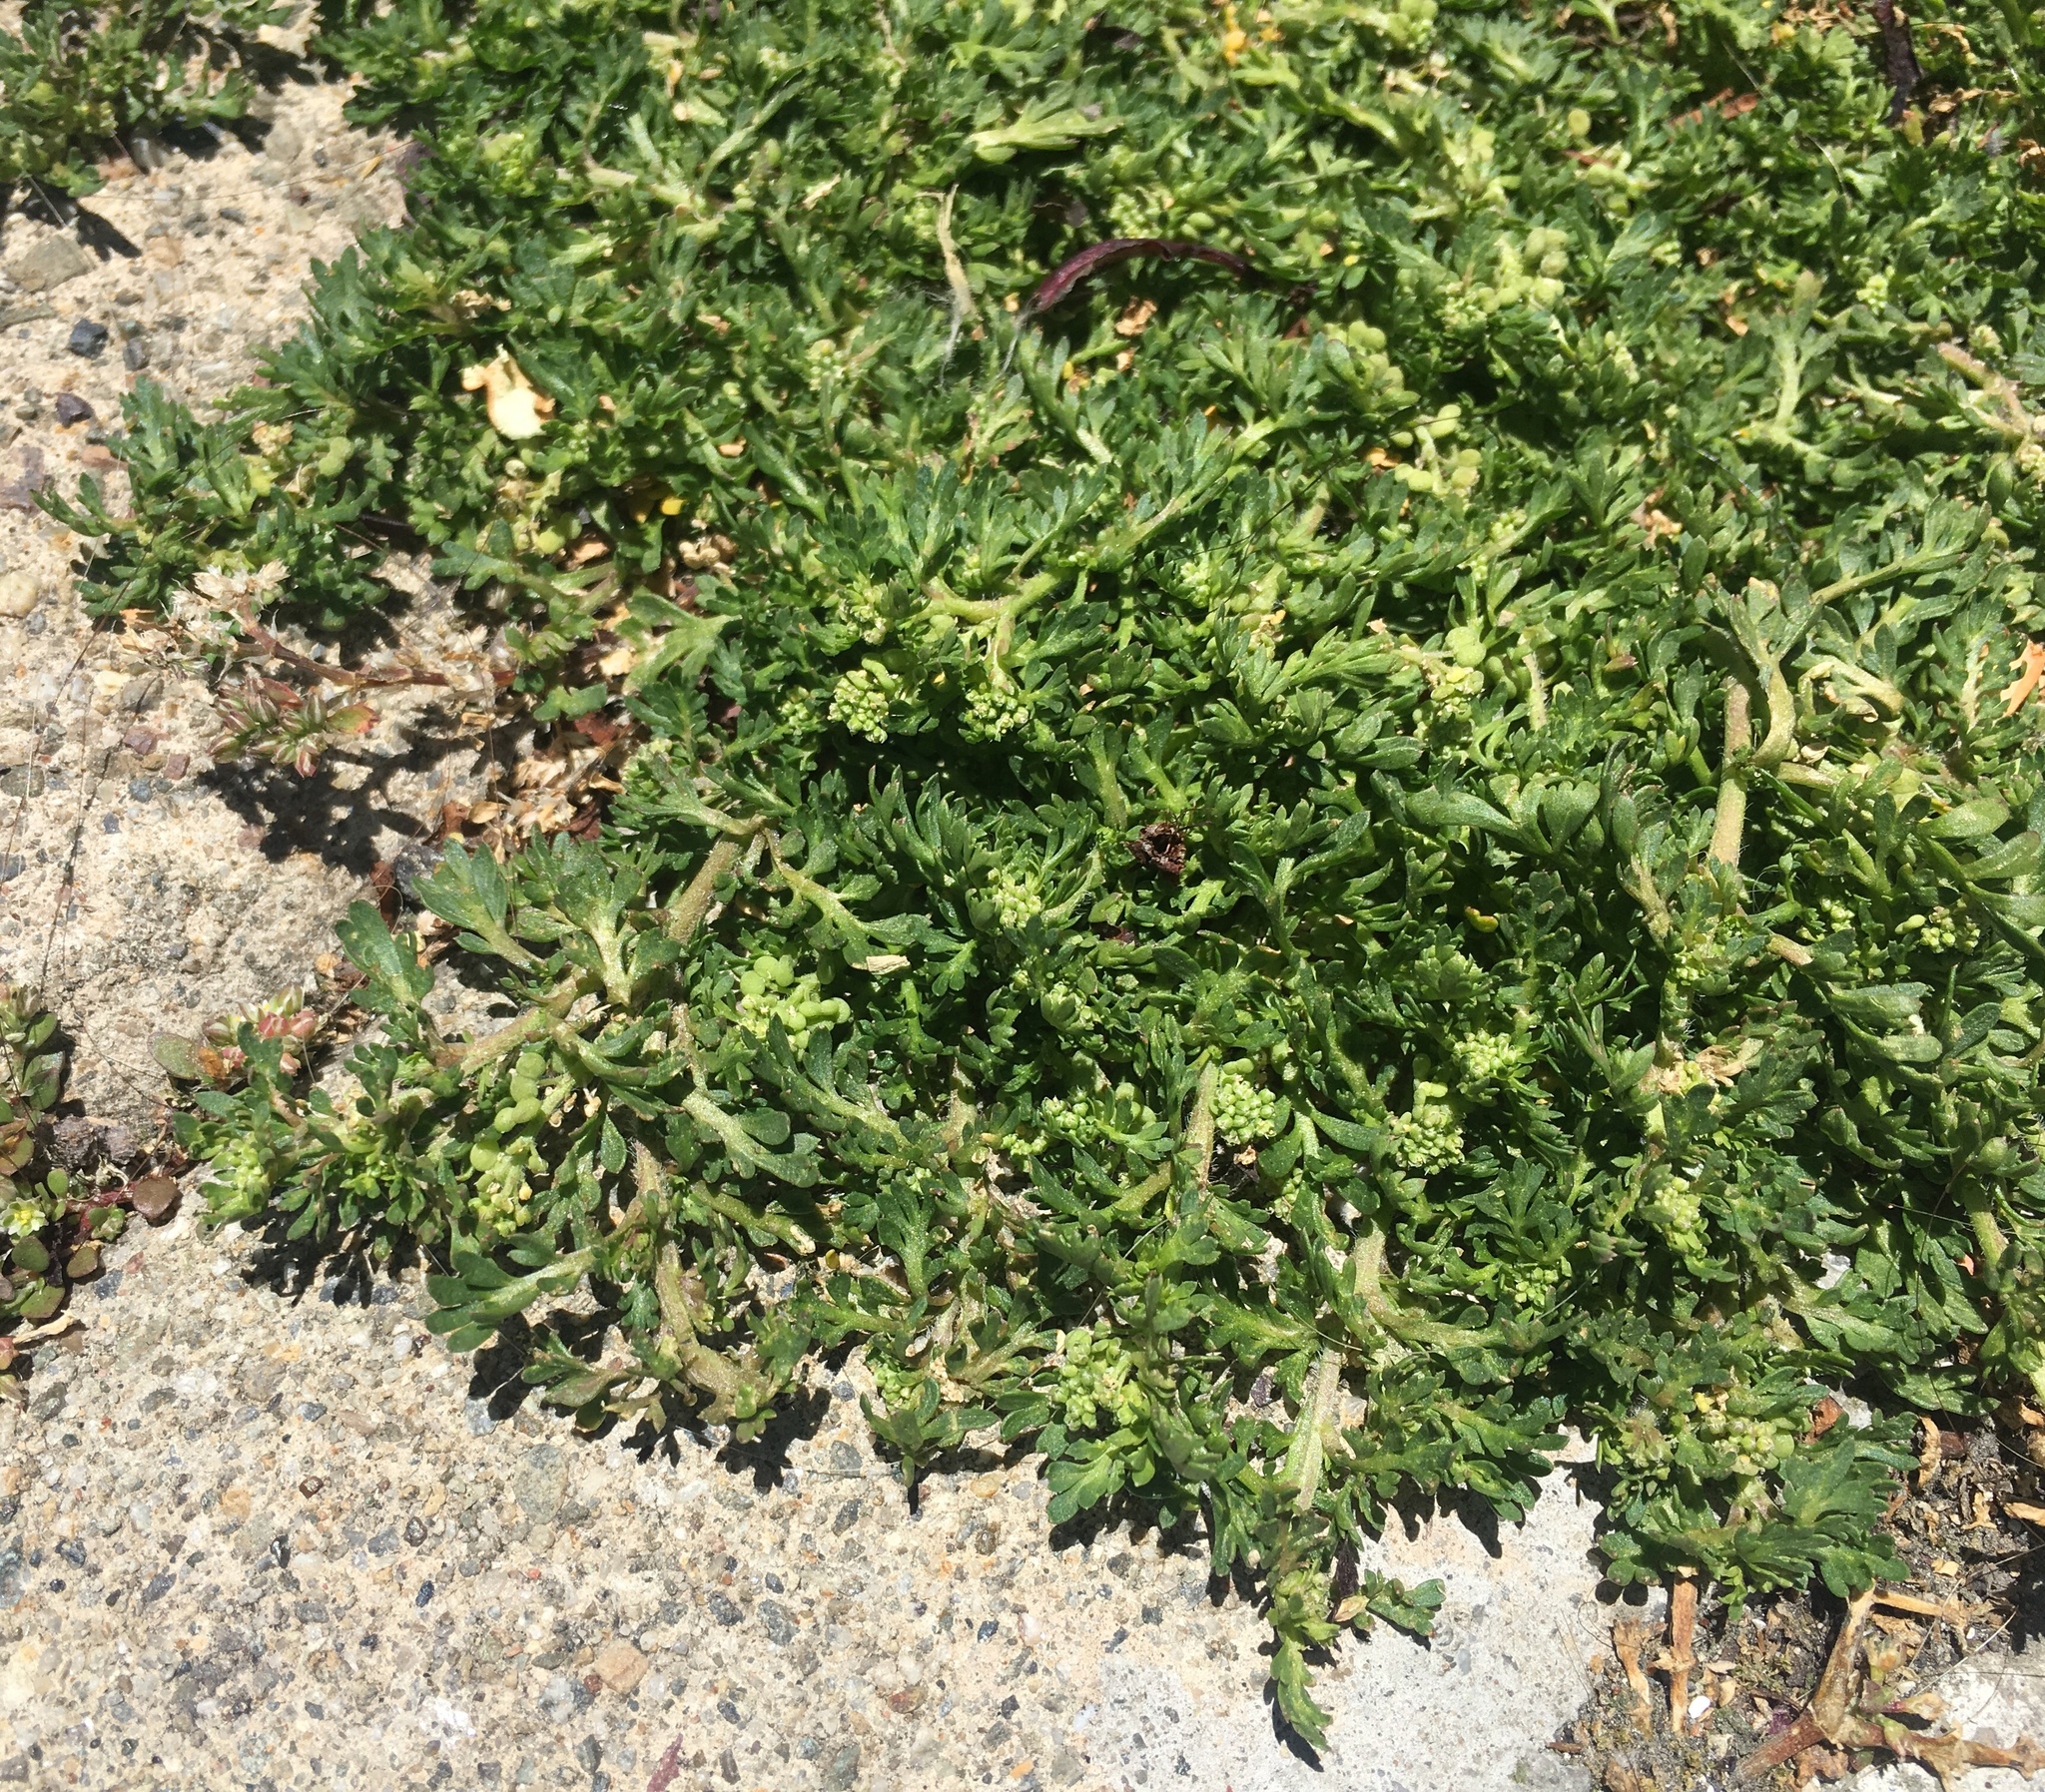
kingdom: Plantae
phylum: Tracheophyta
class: Magnoliopsida
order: Brassicales
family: Brassicaceae
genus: Lepidium
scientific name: Lepidium didymum
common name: Lesser swinecress
